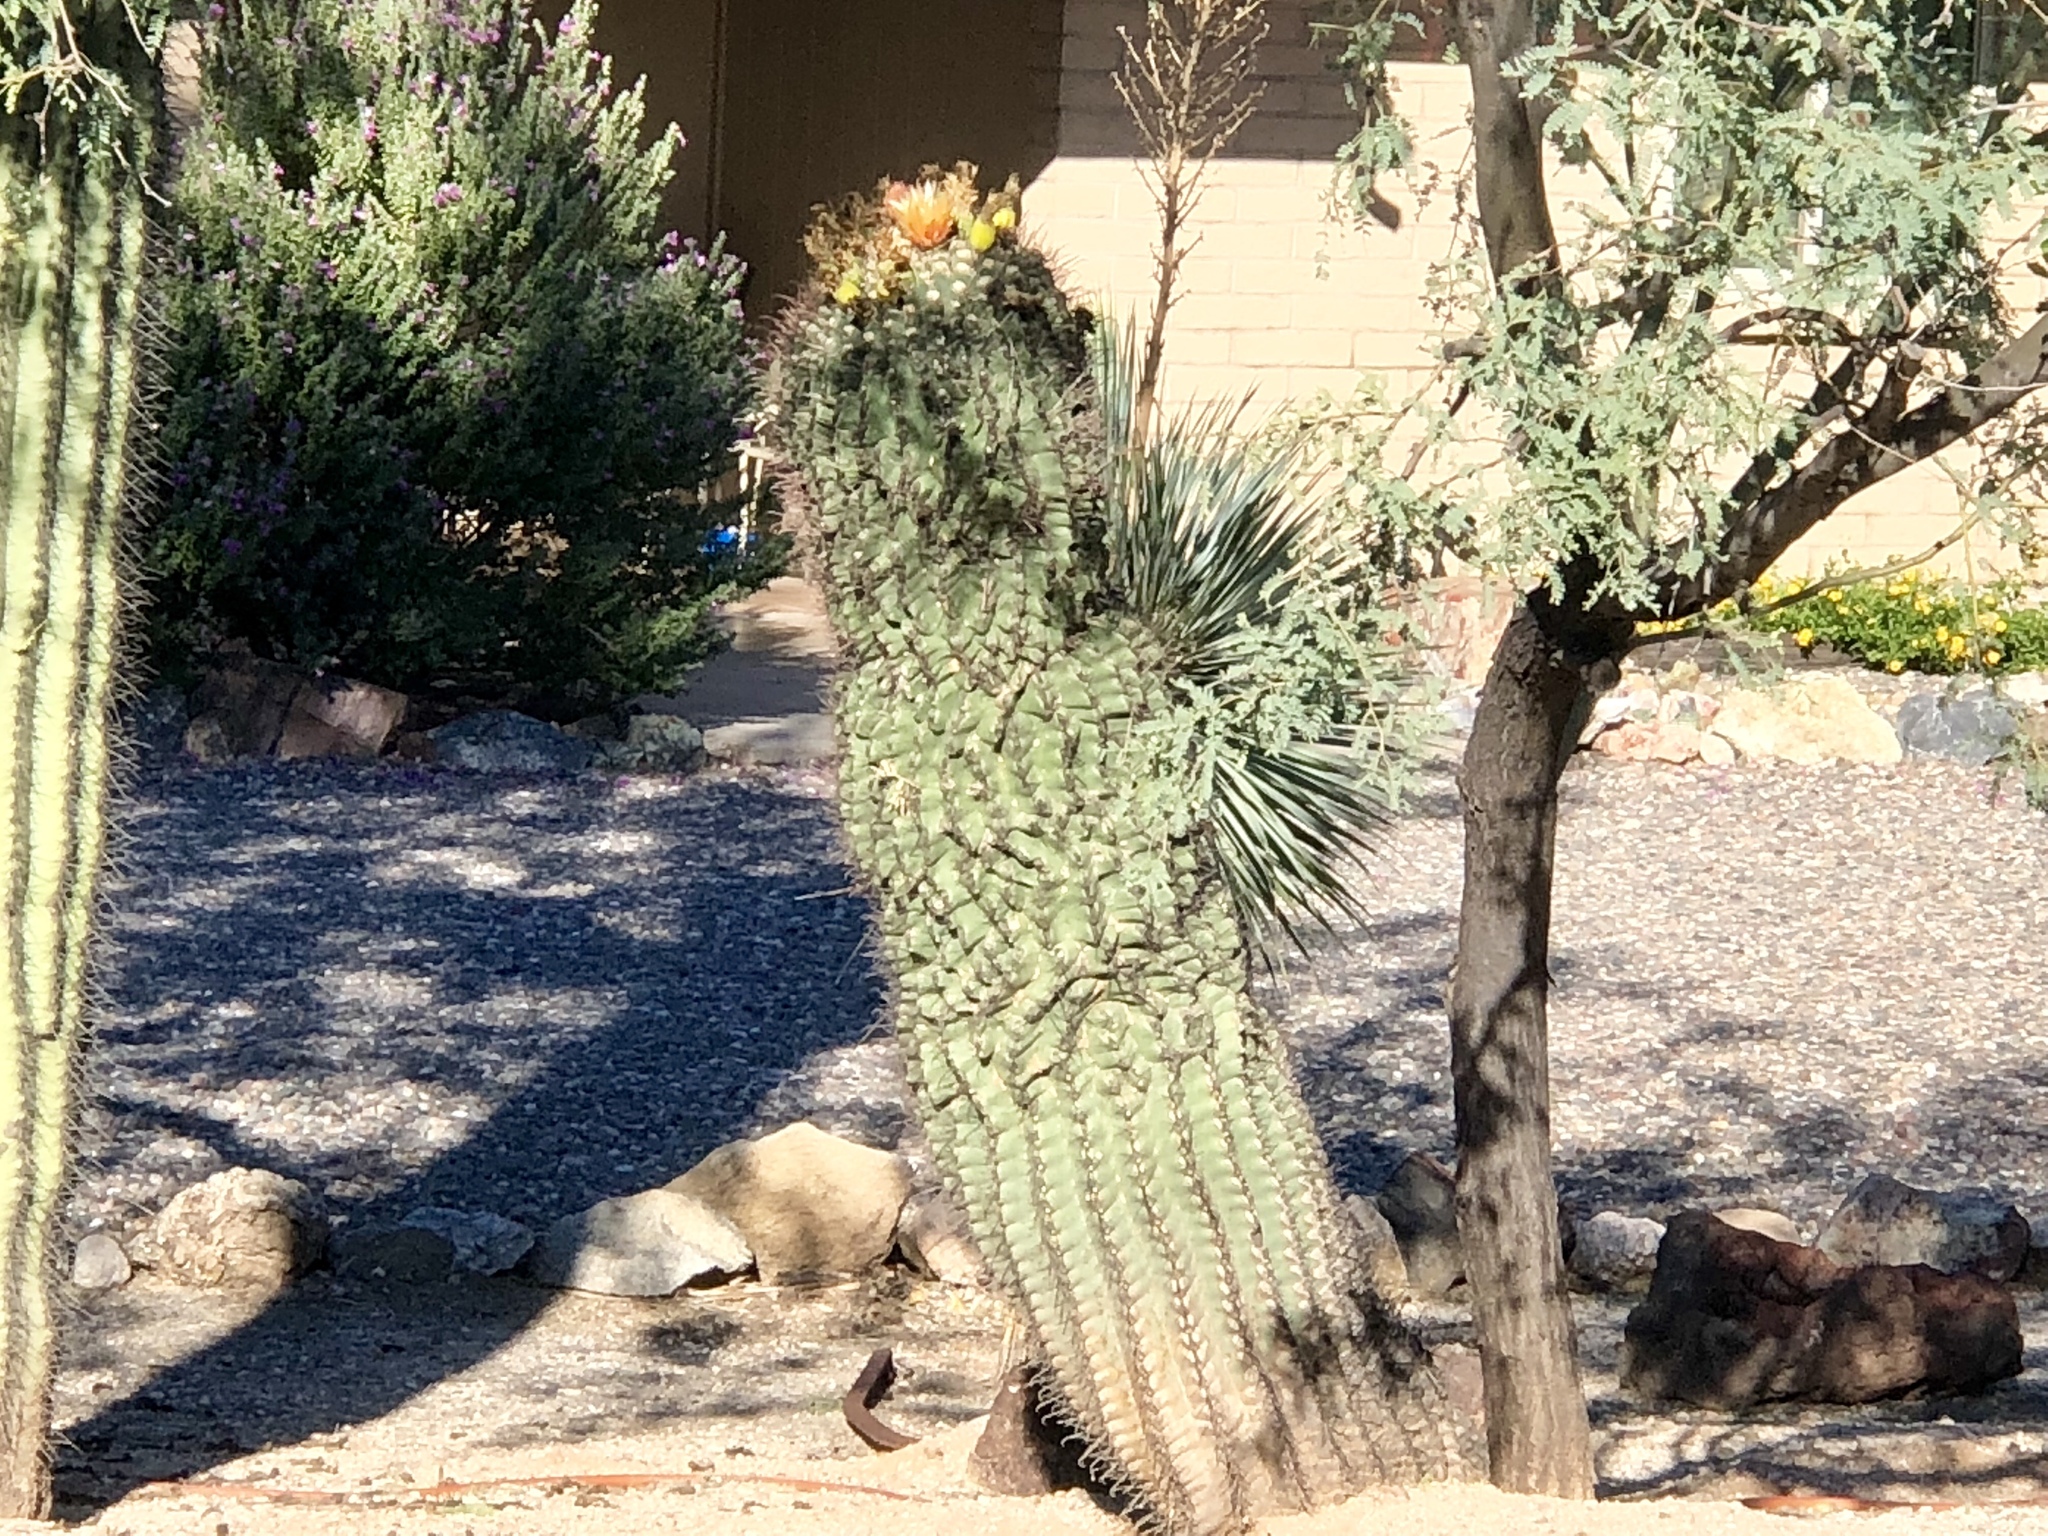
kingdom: Plantae
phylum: Tracheophyta
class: Magnoliopsida
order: Caryophyllales
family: Cactaceae
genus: Ferocactus
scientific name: Ferocactus wislizeni
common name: Candy barrel cactus
